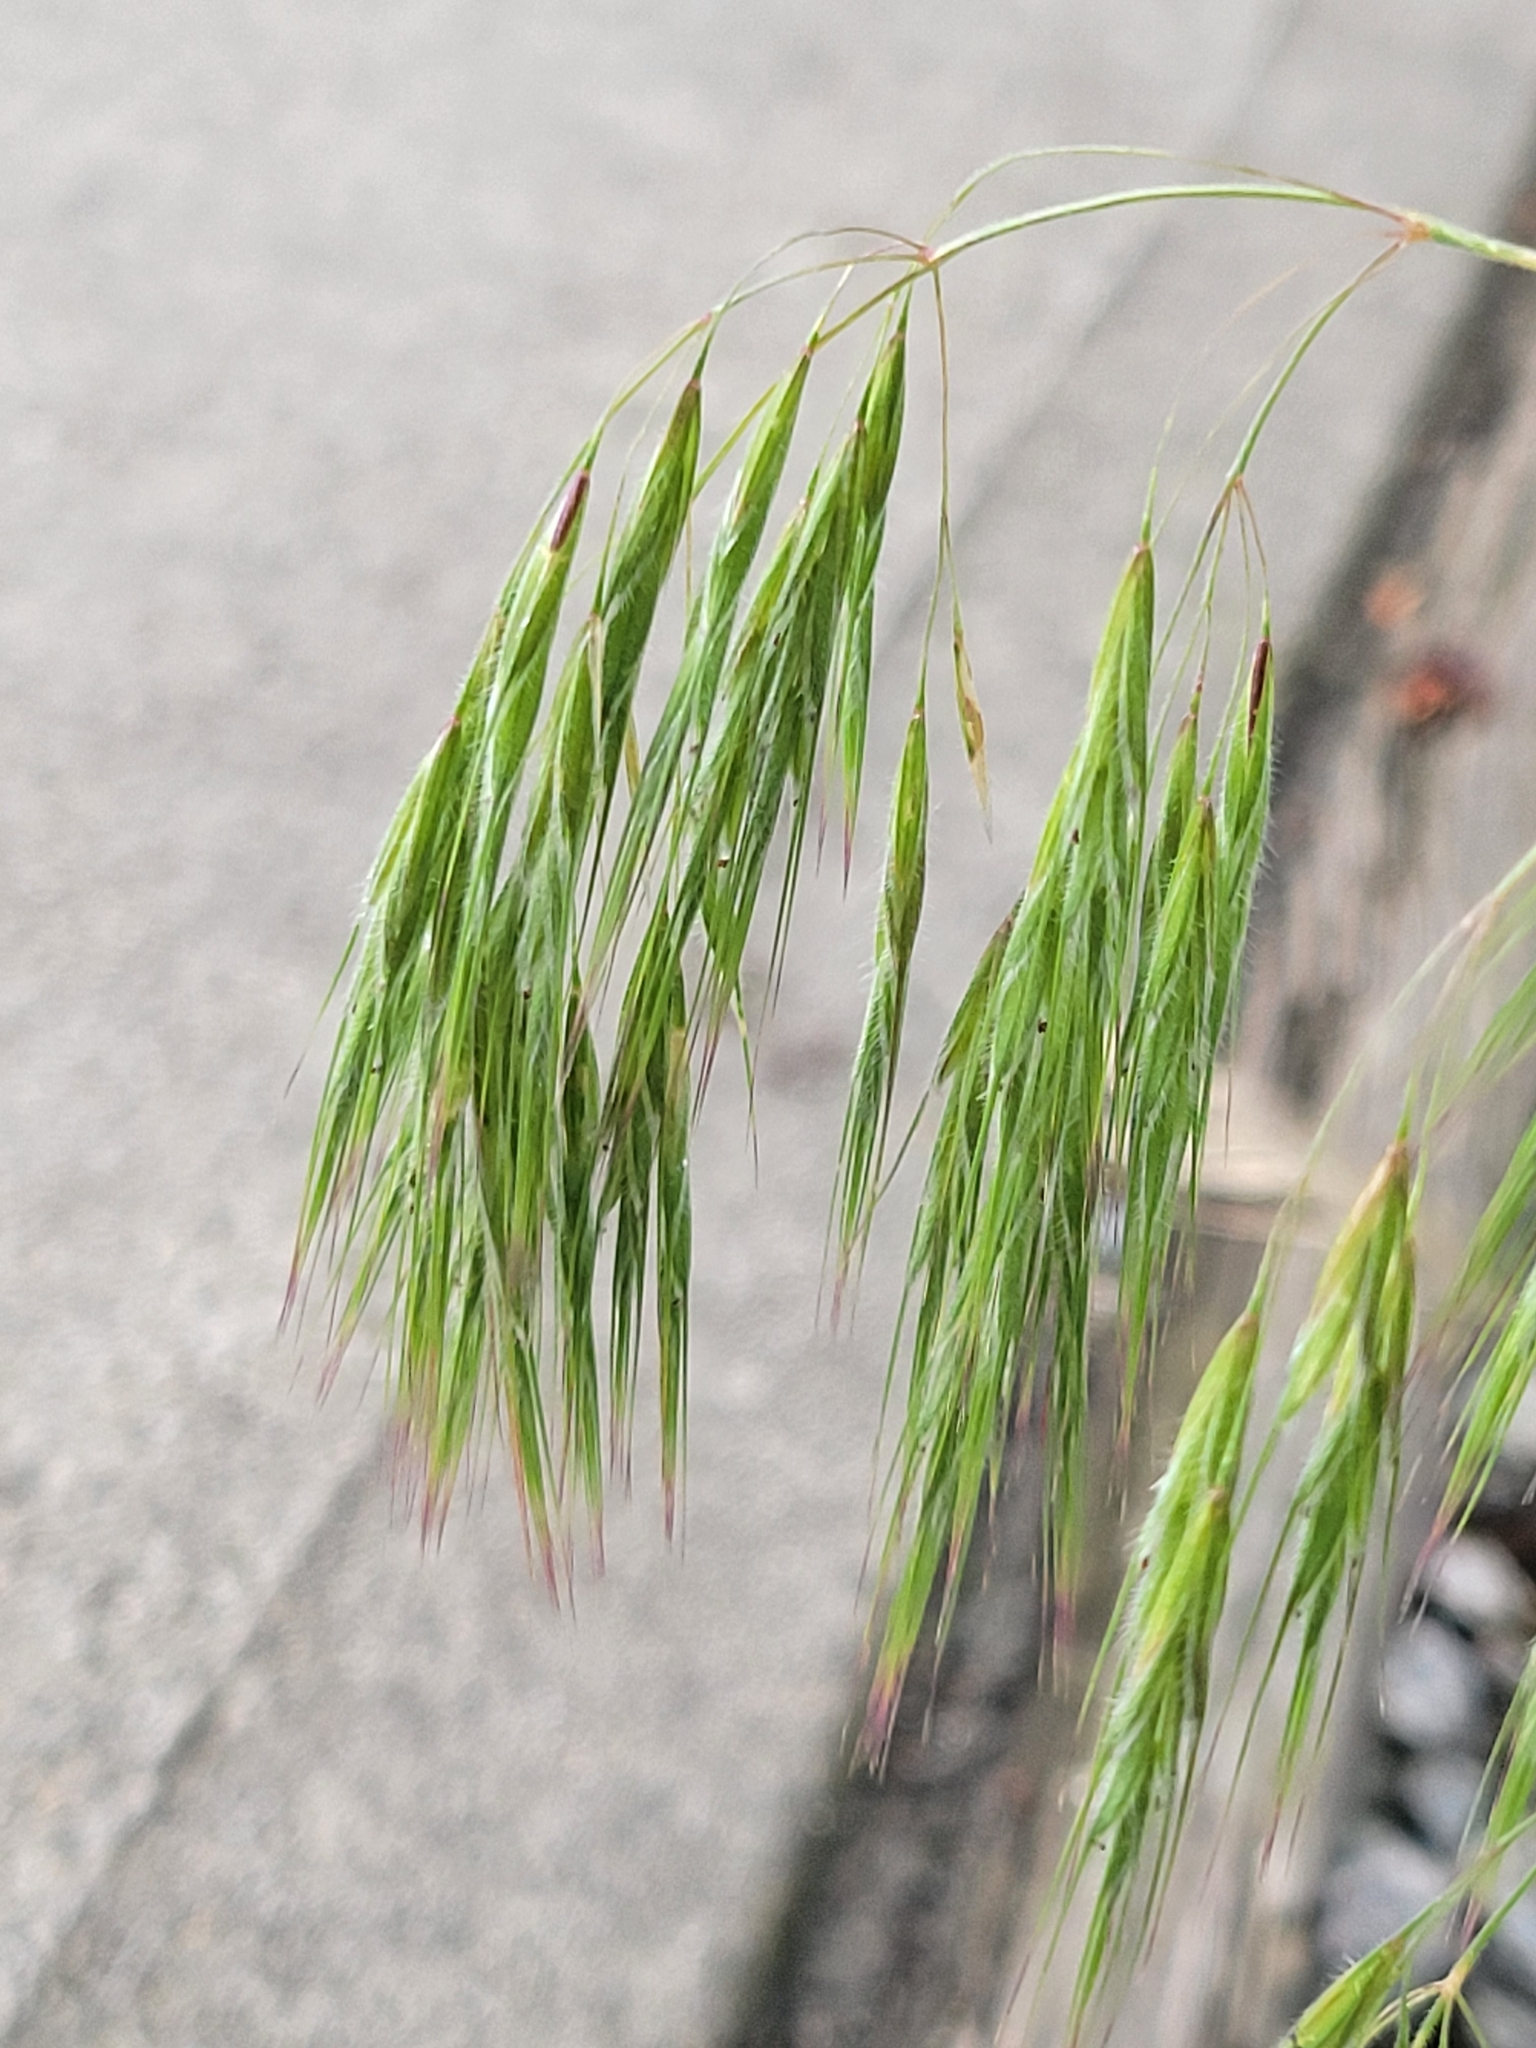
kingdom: Plantae
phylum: Tracheophyta
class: Liliopsida
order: Poales
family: Poaceae
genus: Bromus
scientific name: Bromus tectorum
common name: Cheatgrass
